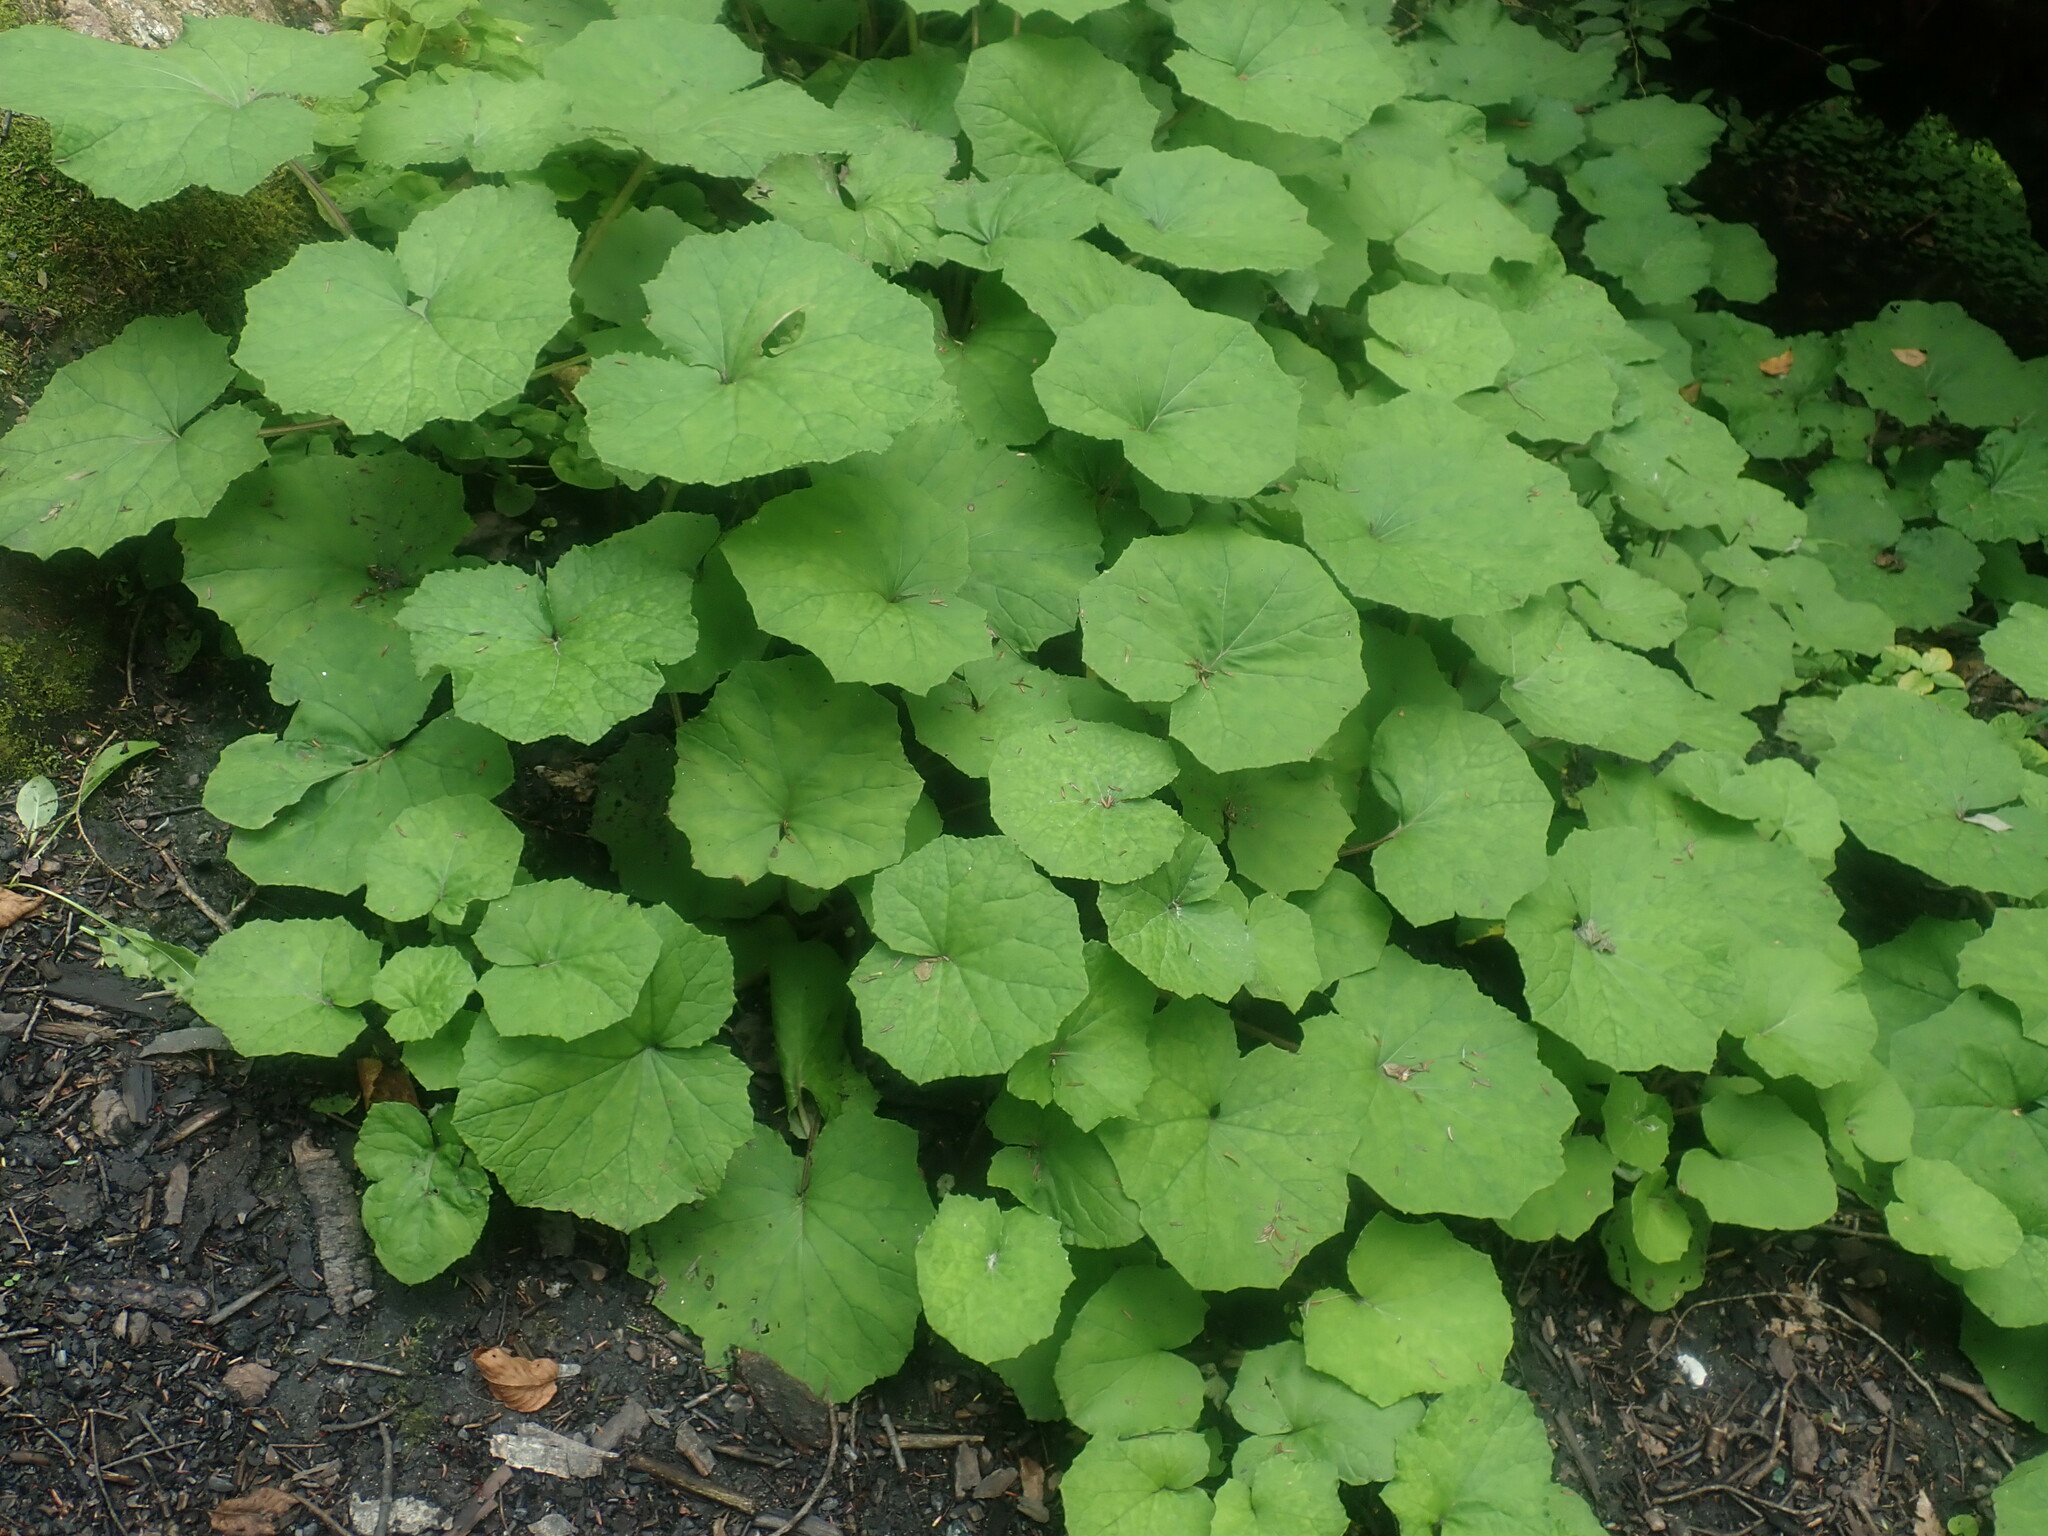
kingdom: Plantae
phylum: Tracheophyta
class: Magnoliopsida
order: Asterales
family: Asteraceae
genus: Tussilago
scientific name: Tussilago farfara
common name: Coltsfoot
